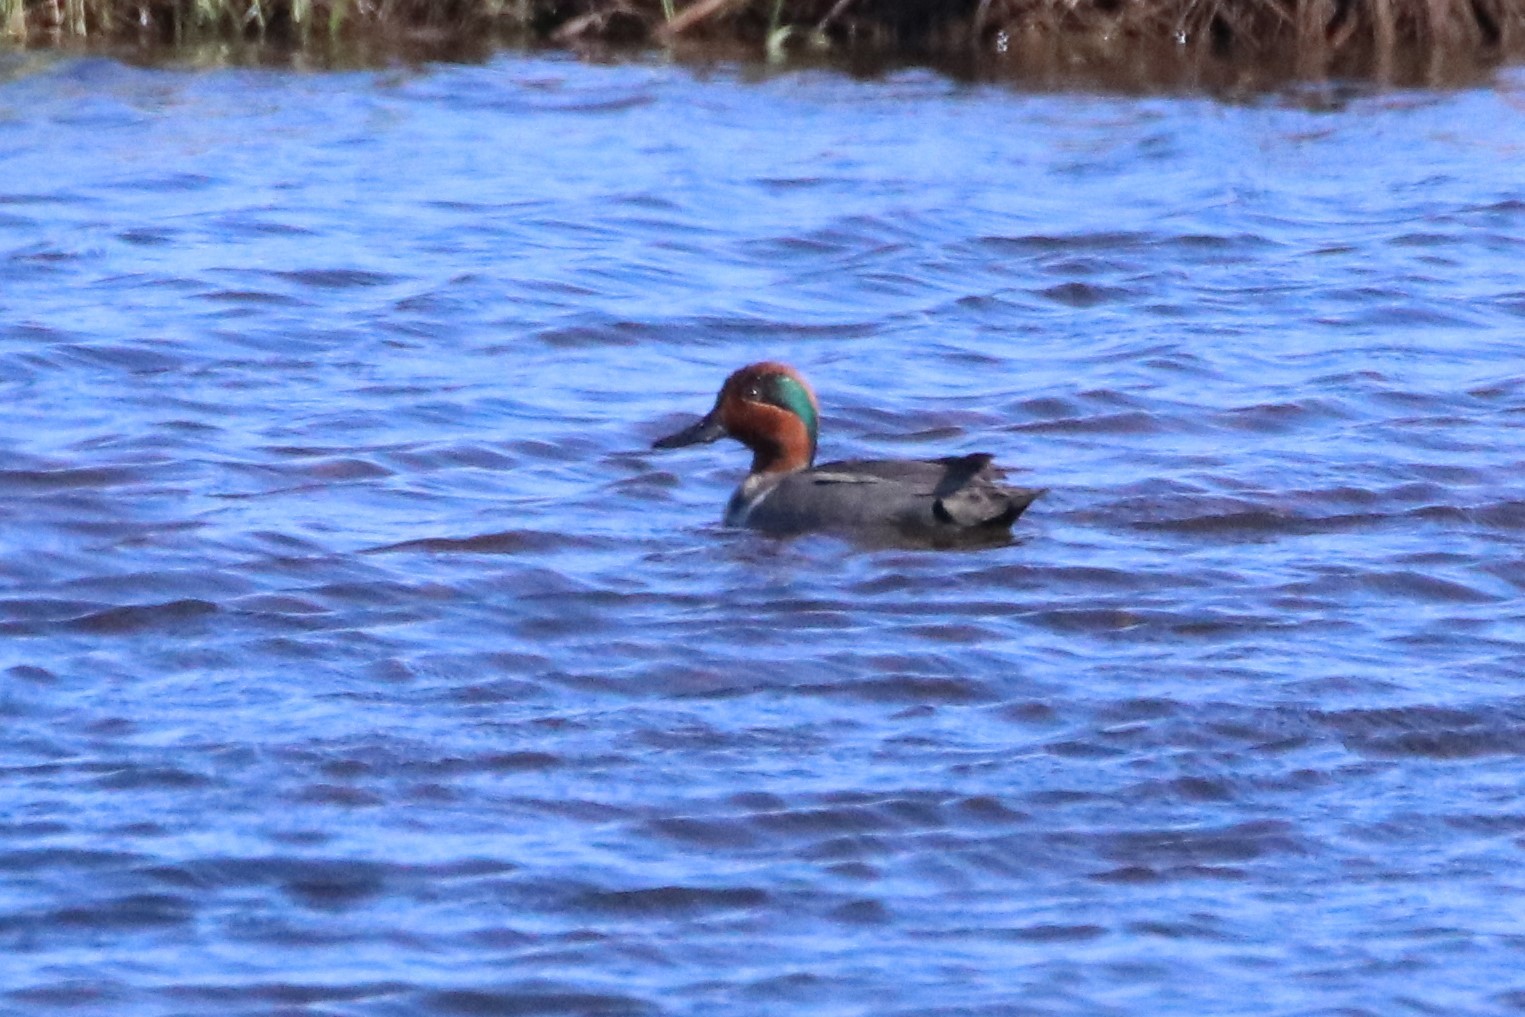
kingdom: Animalia
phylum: Chordata
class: Aves
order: Anseriformes
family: Anatidae
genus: Anas
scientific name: Anas crecca
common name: Eurasian teal
